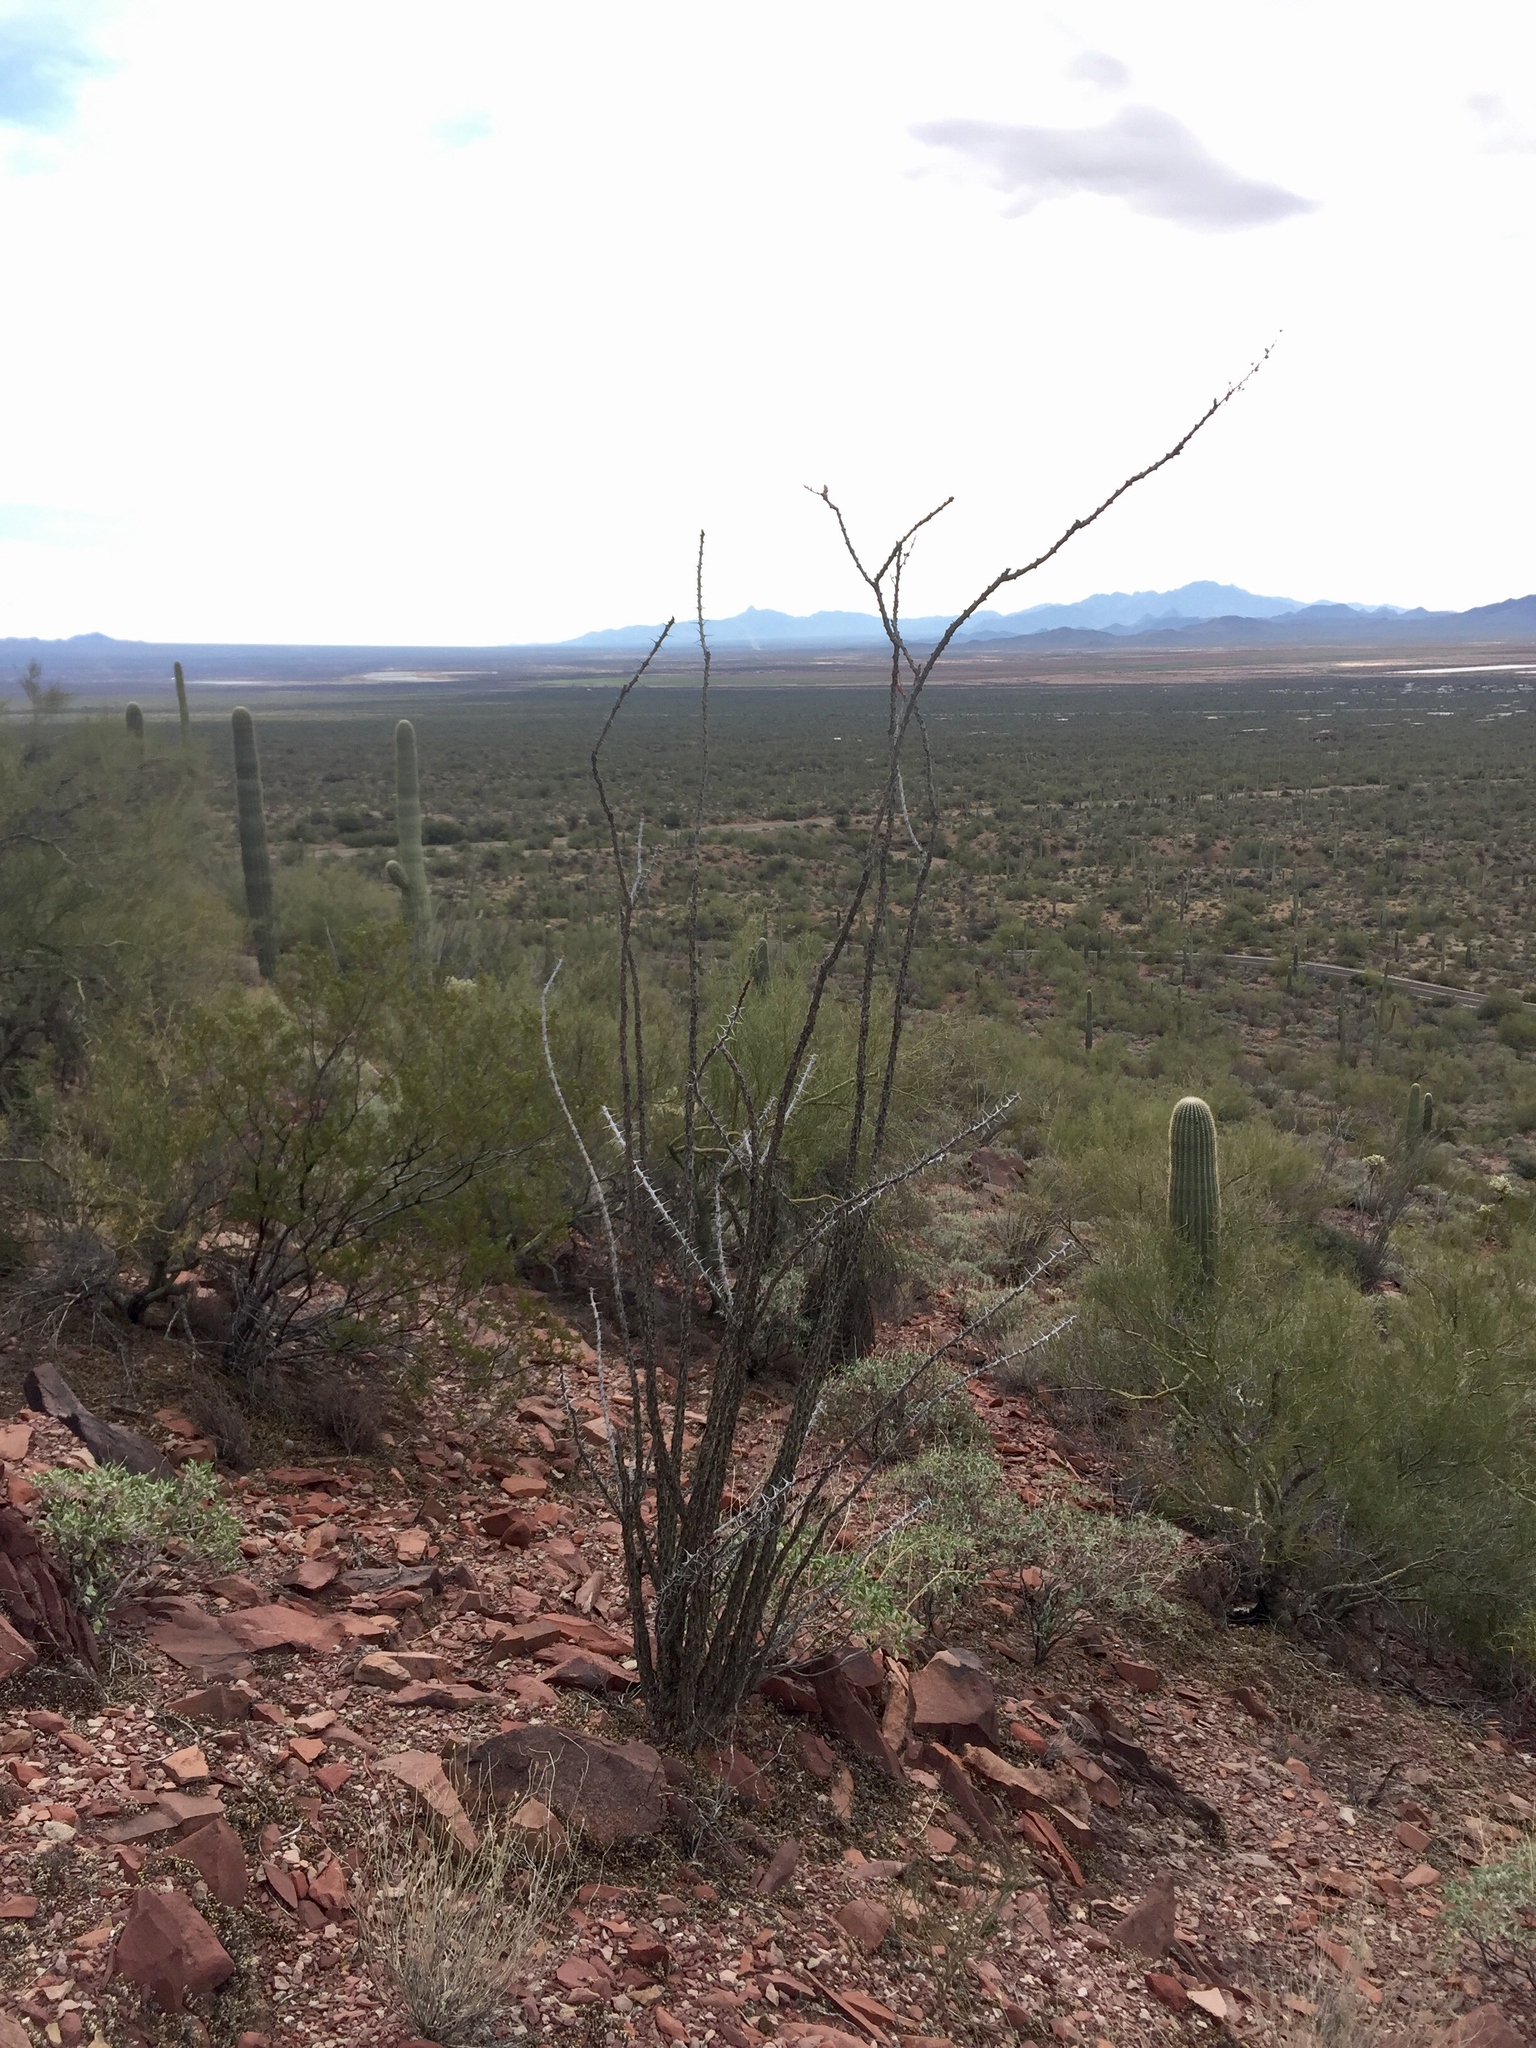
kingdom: Plantae
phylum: Tracheophyta
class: Magnoliopsida
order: Ericales
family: Fouquieriaceae
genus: Fouquieria
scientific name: Fouquieria splendens
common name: Vine-cactus
